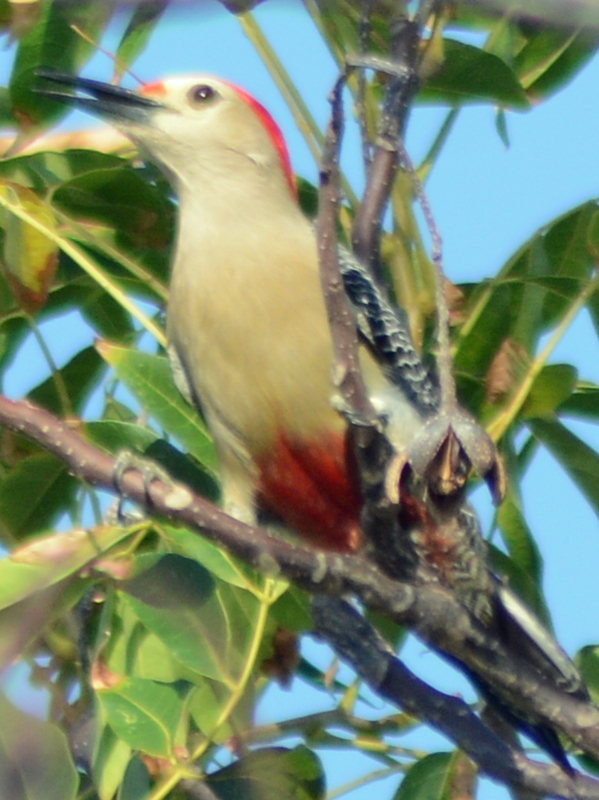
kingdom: Animalia
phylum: Chordata
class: Aves
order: Piciformes
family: Picidae
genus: Melanerpes
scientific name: Melanerpes aurifrons
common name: Golden-fronted woodpecker
